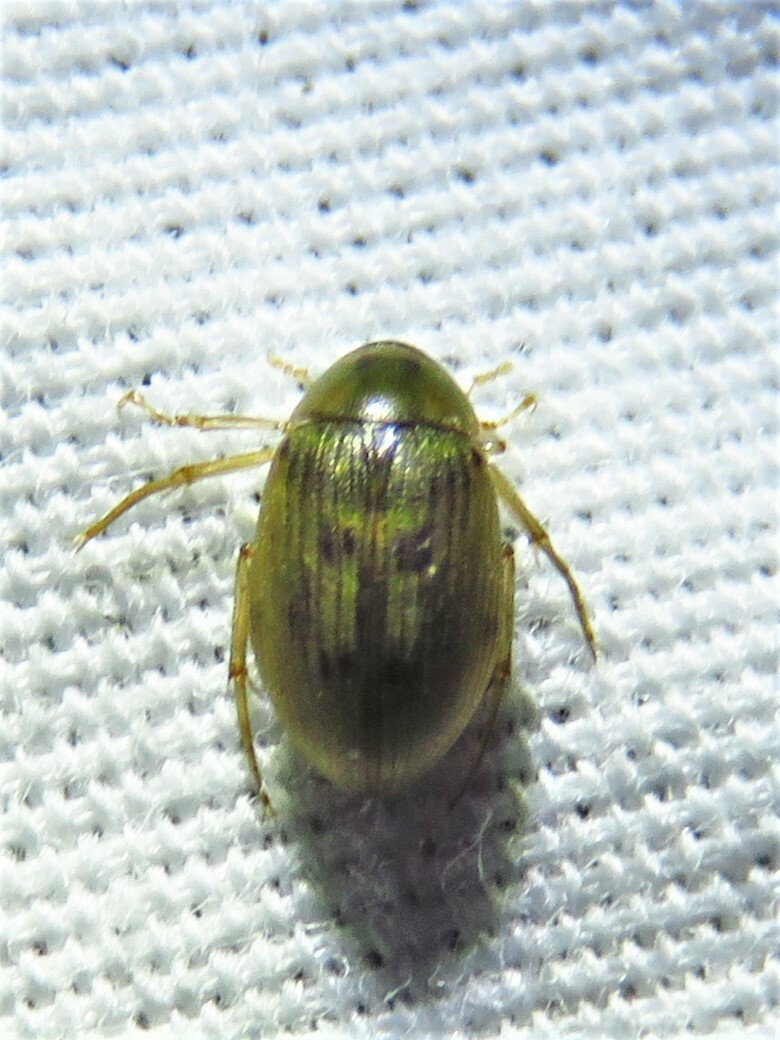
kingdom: Animalia
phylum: Arthropoda
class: Insecta
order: Coleoptera
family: Hydrophilidae
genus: Berosus
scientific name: Berosus
